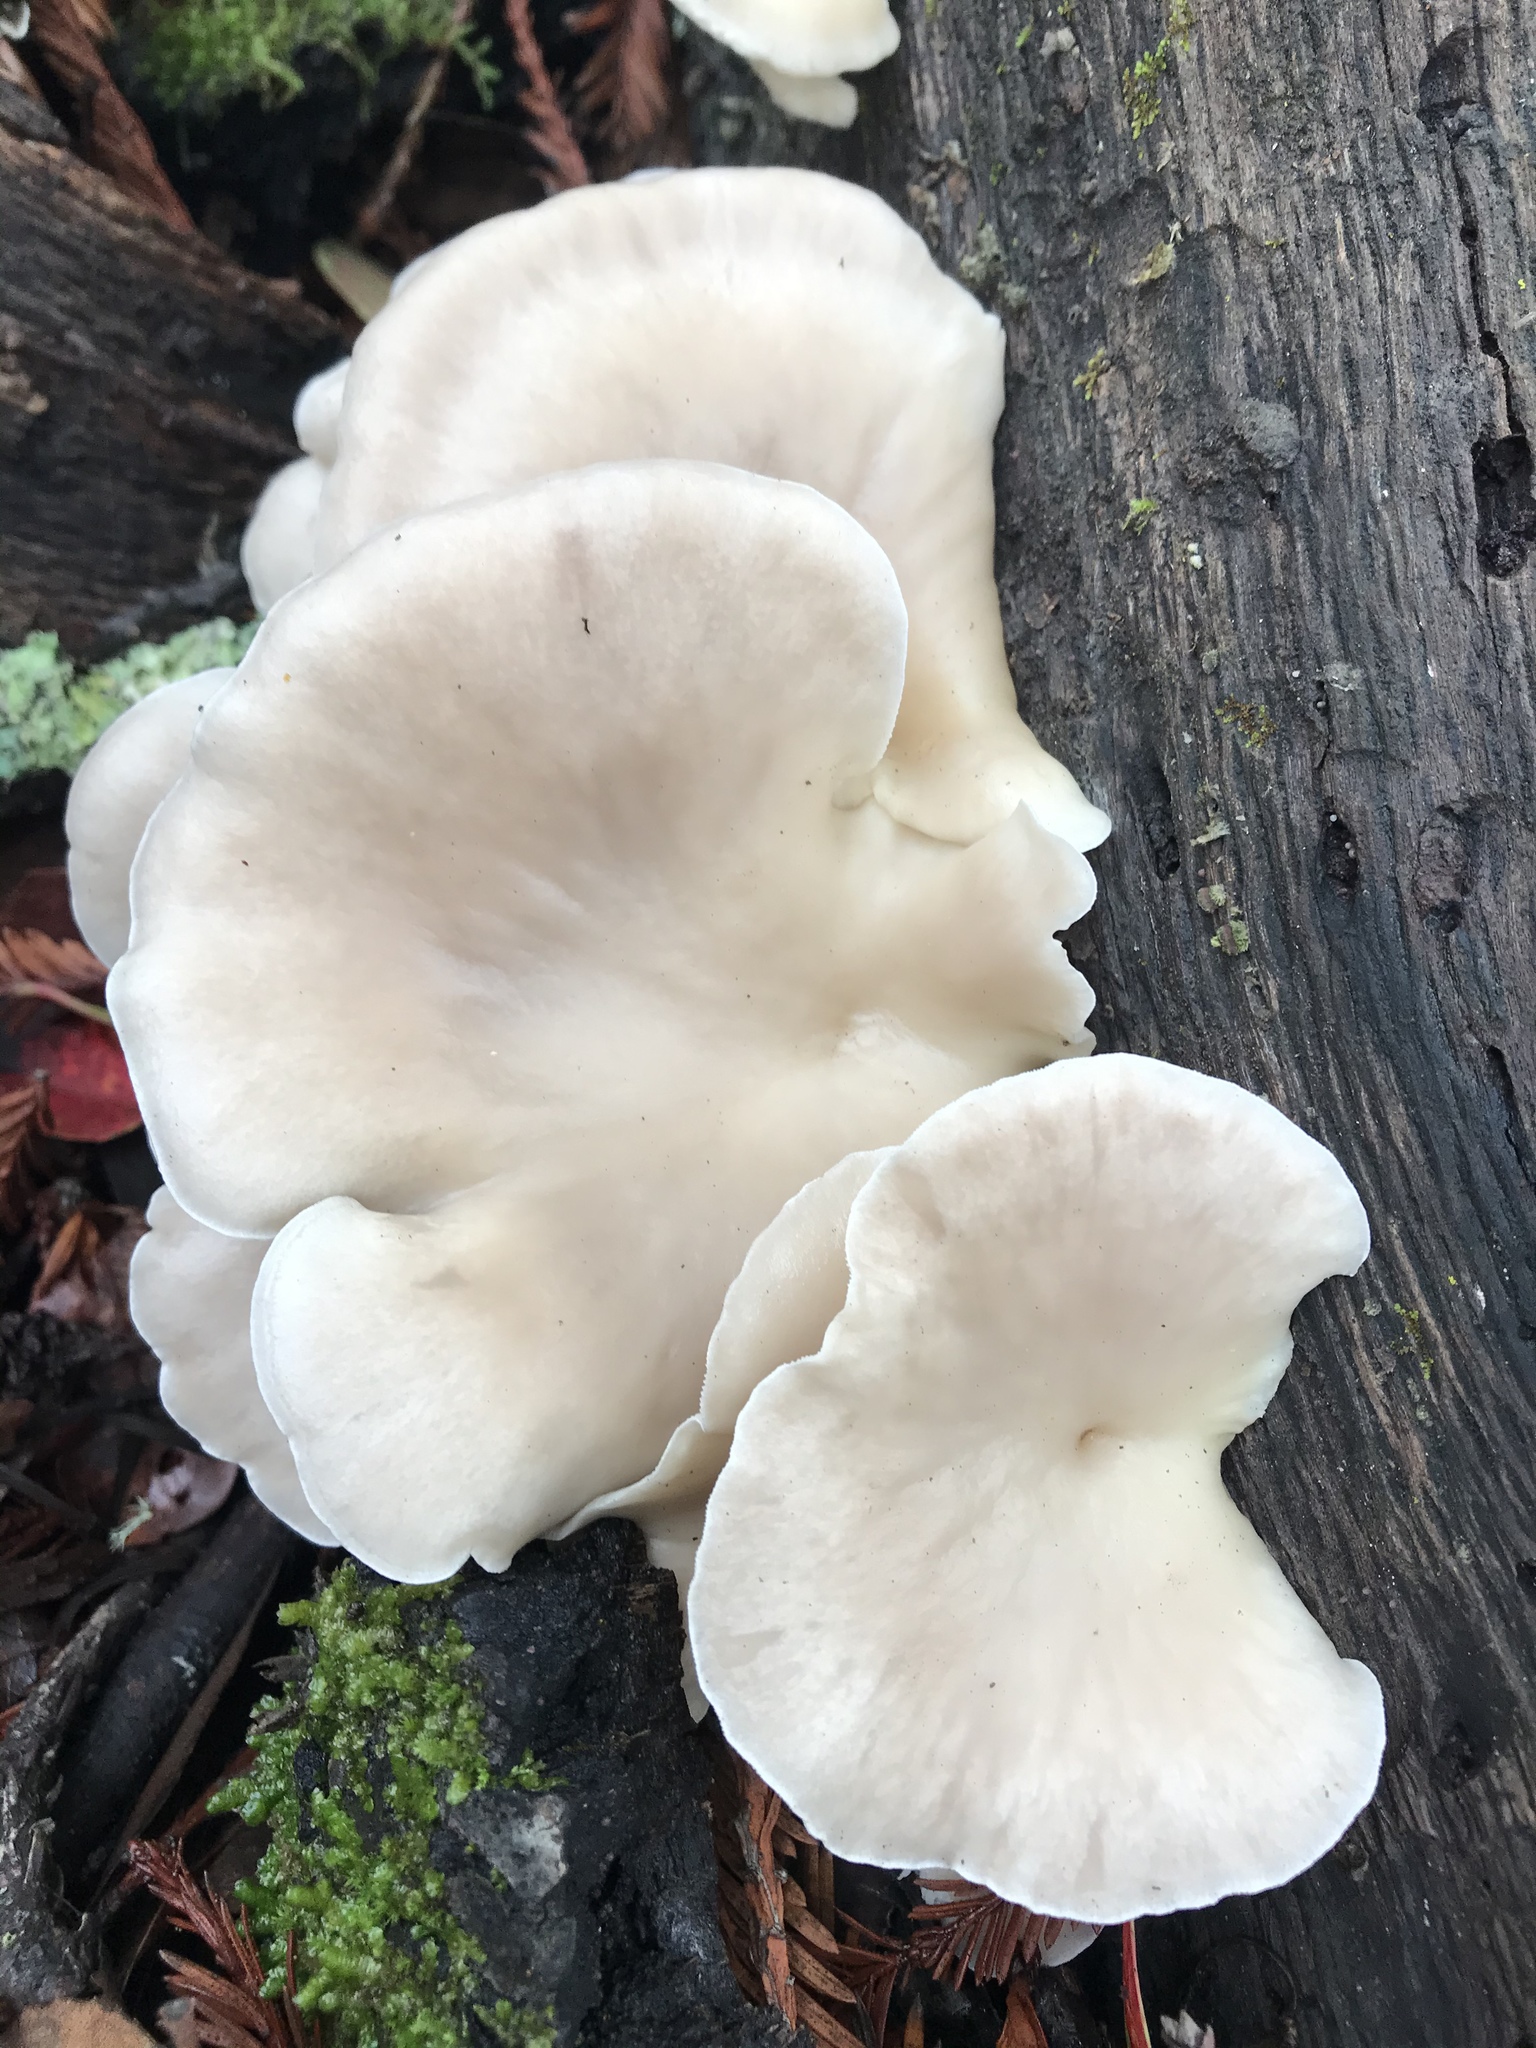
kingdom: Fungi
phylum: Basidiomycota
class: Agaricomycetes
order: Agaricales
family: Pleurotaceae
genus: Pleurotus
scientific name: Pleurotus pulmonarius
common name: Pale oyster
